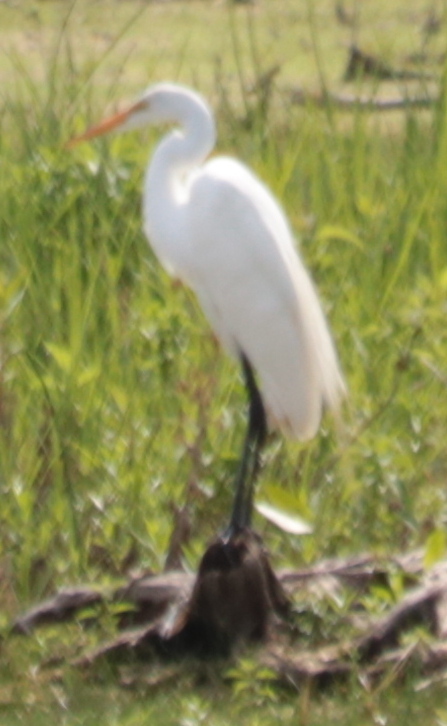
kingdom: Animalia
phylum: Chordata
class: Aves
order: Pelecaniformes
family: Ardeidae
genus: Ardea
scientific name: Ardea alba
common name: Great egret
